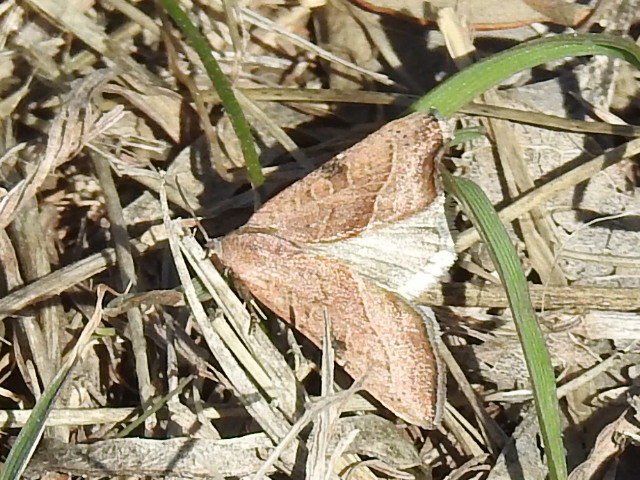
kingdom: Animalia
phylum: Arthropoda
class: Insecta
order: Lepidoptera
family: Noctuidae
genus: Galgula
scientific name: Galgula partita
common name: Wedgeling
